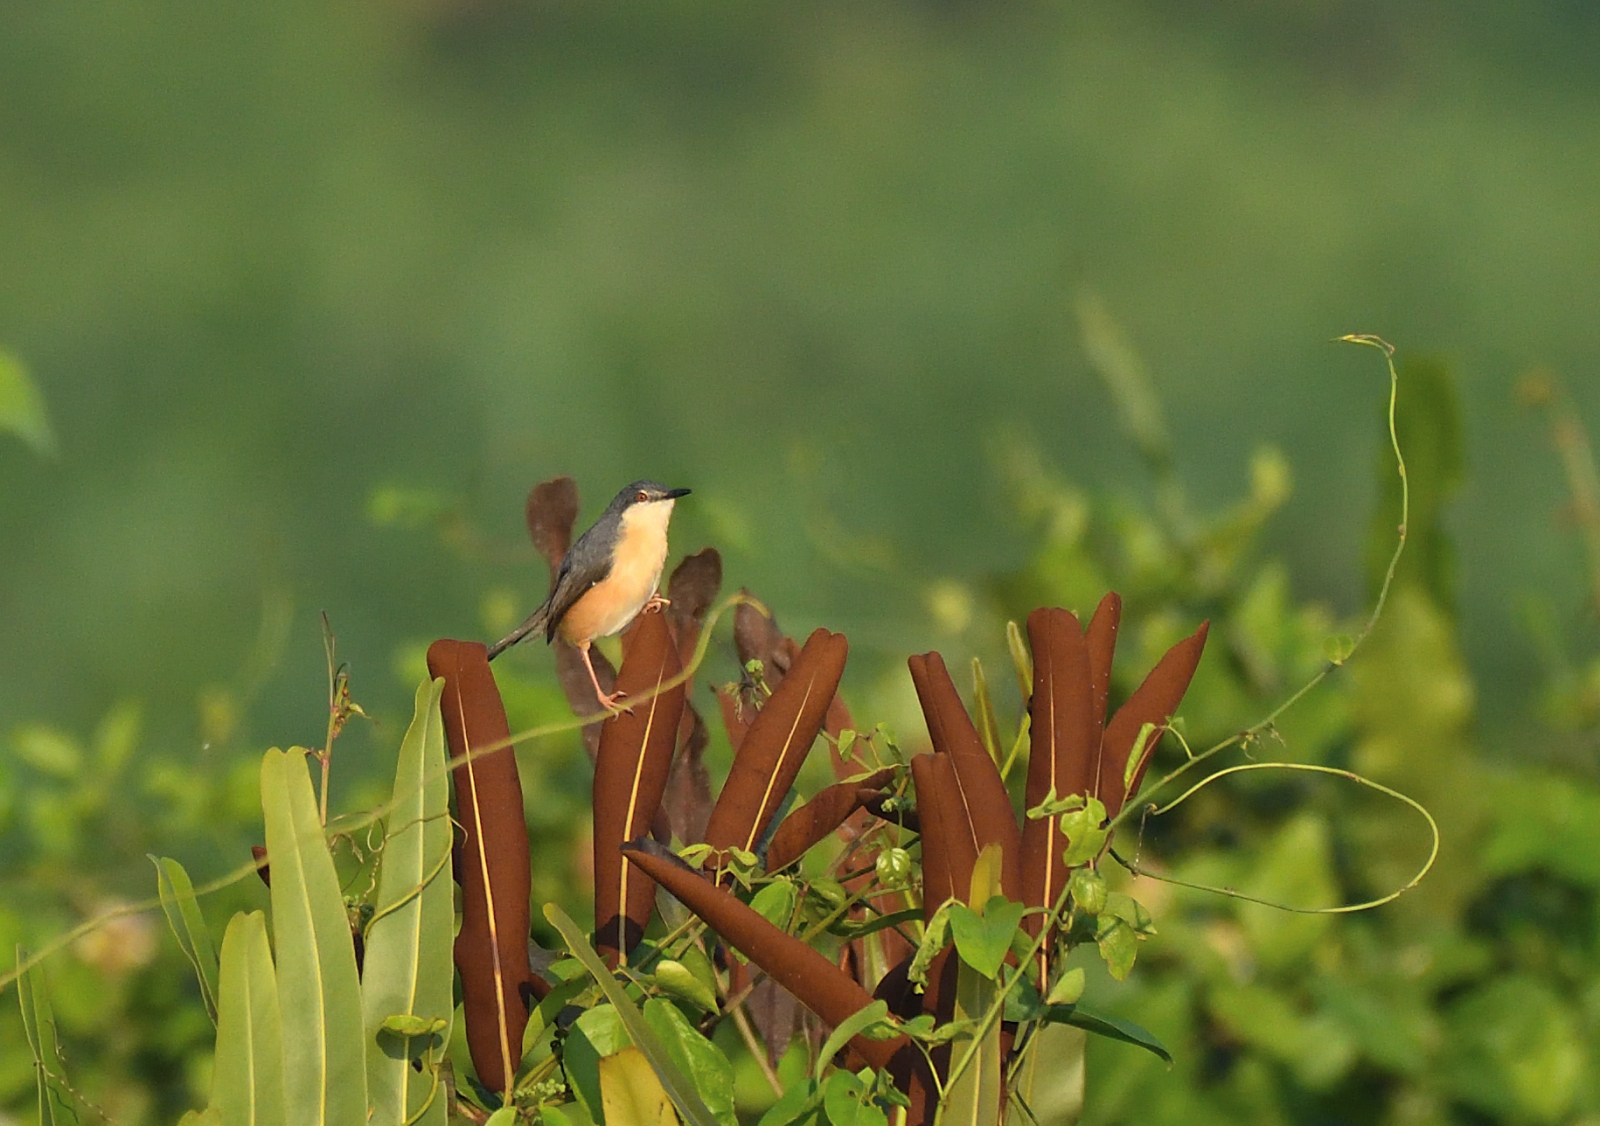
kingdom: Animalia
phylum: Chordata
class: Aves
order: Passeriformes
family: Cisticolidae
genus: Prinia
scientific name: Prinia socialis
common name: Ashy prinia
